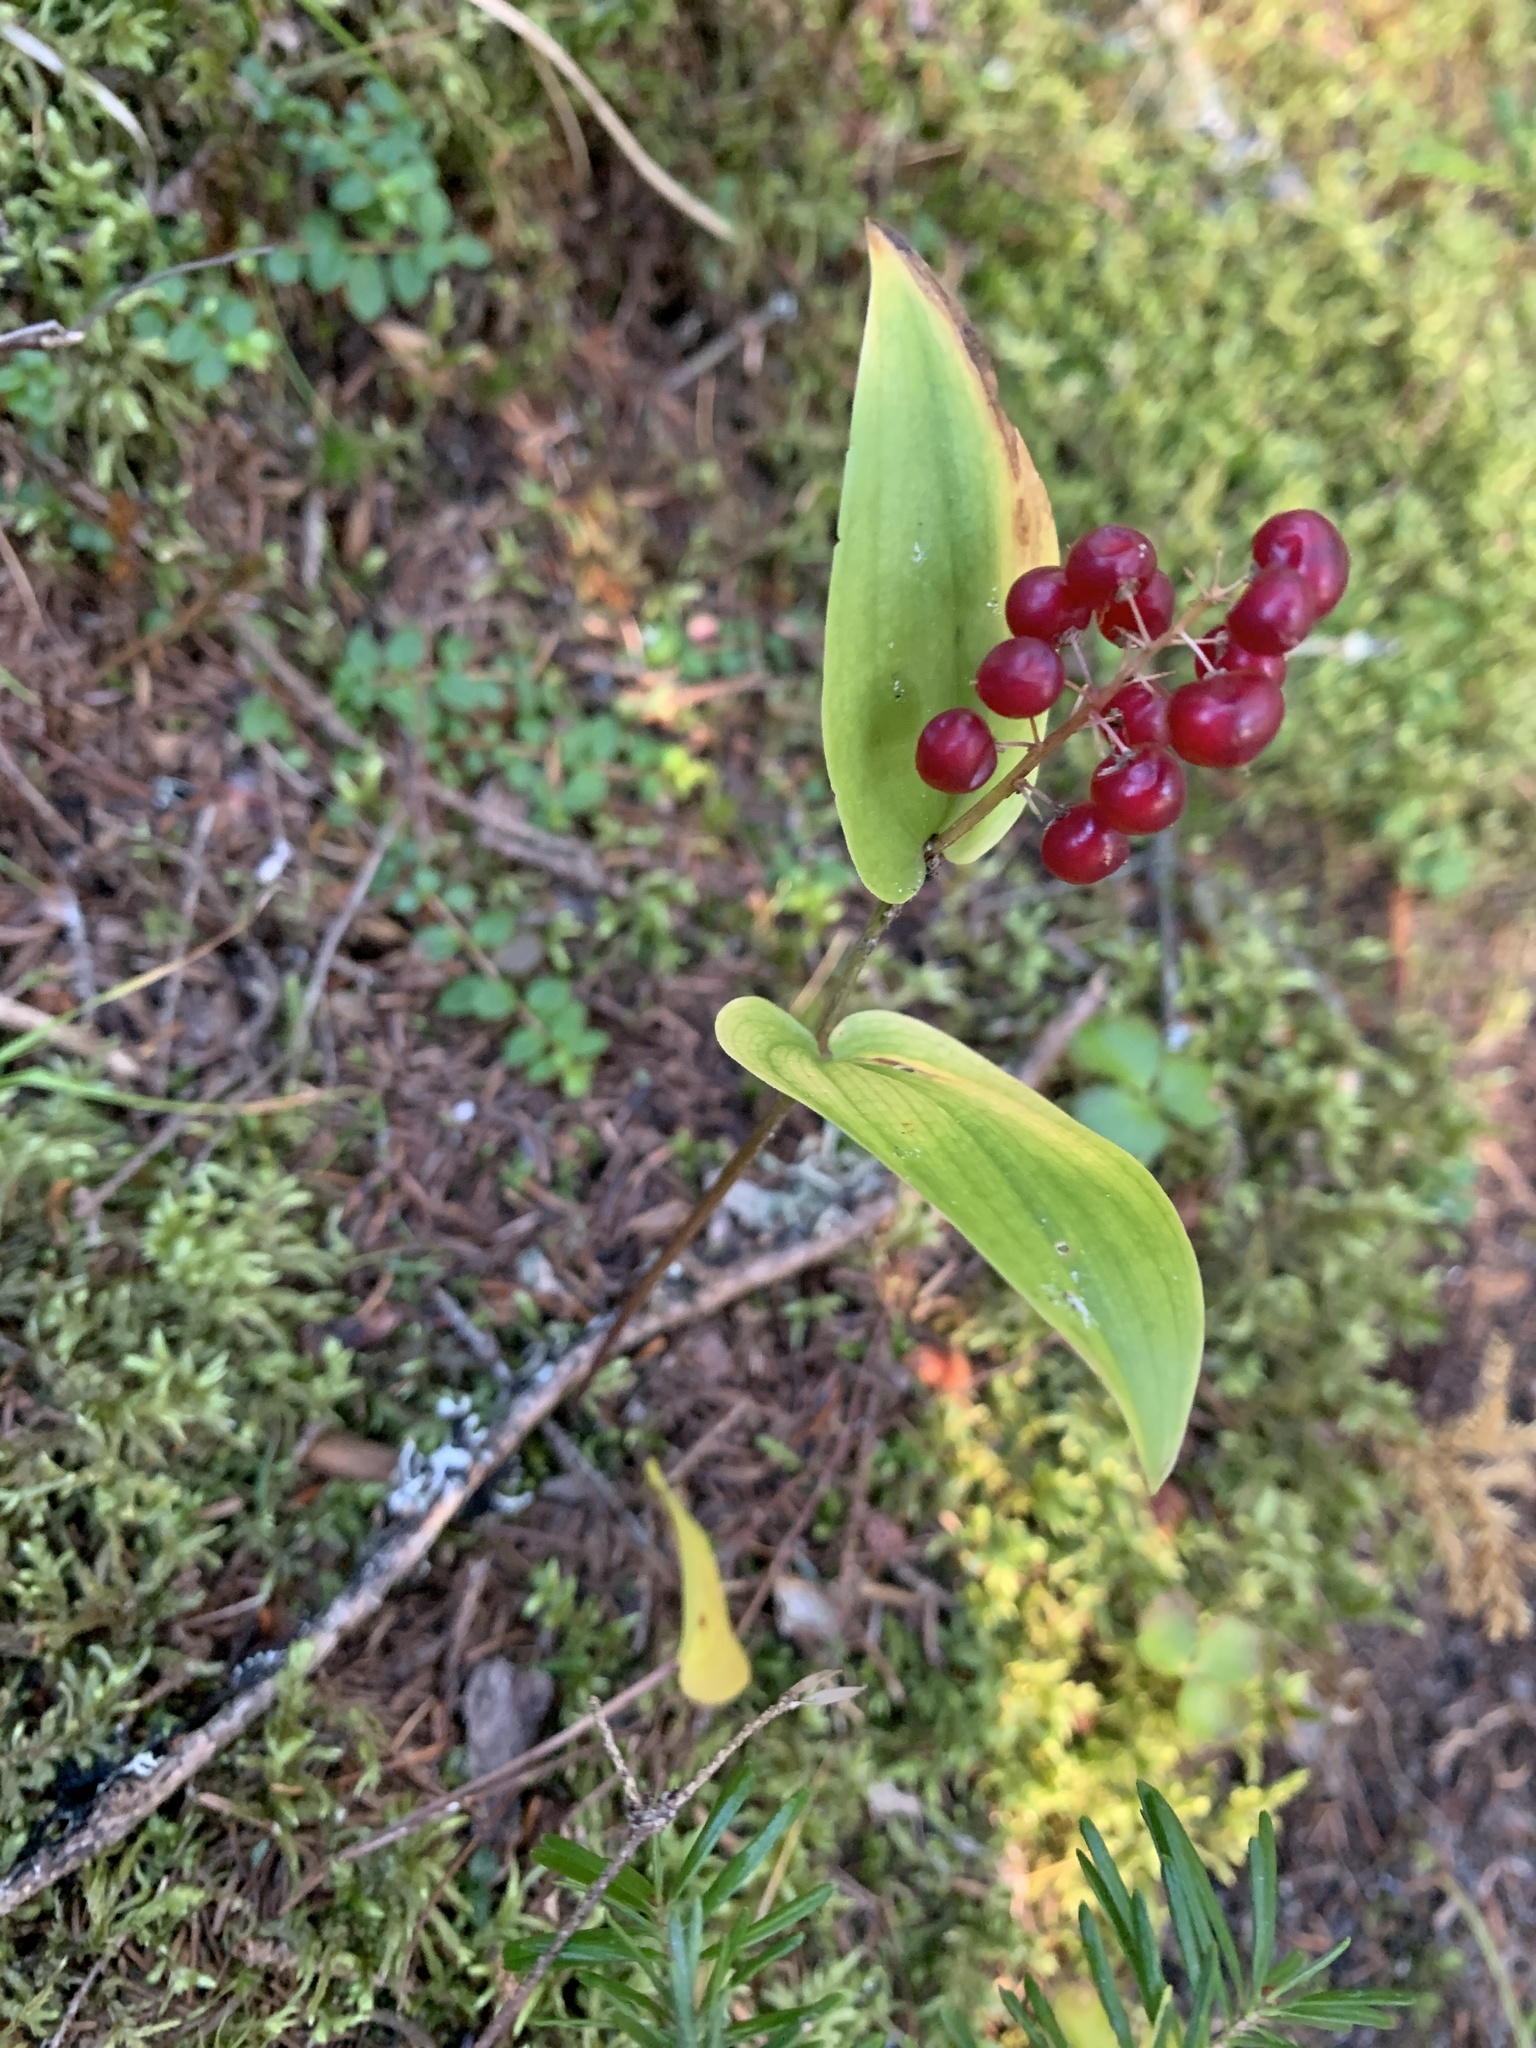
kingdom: Plantae
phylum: Tracheophyta
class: Liliopsida
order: Asparagales
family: Asparagaceae
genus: Maianthemum
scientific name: Maianthemum canadense
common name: False lily-of-the-valley
